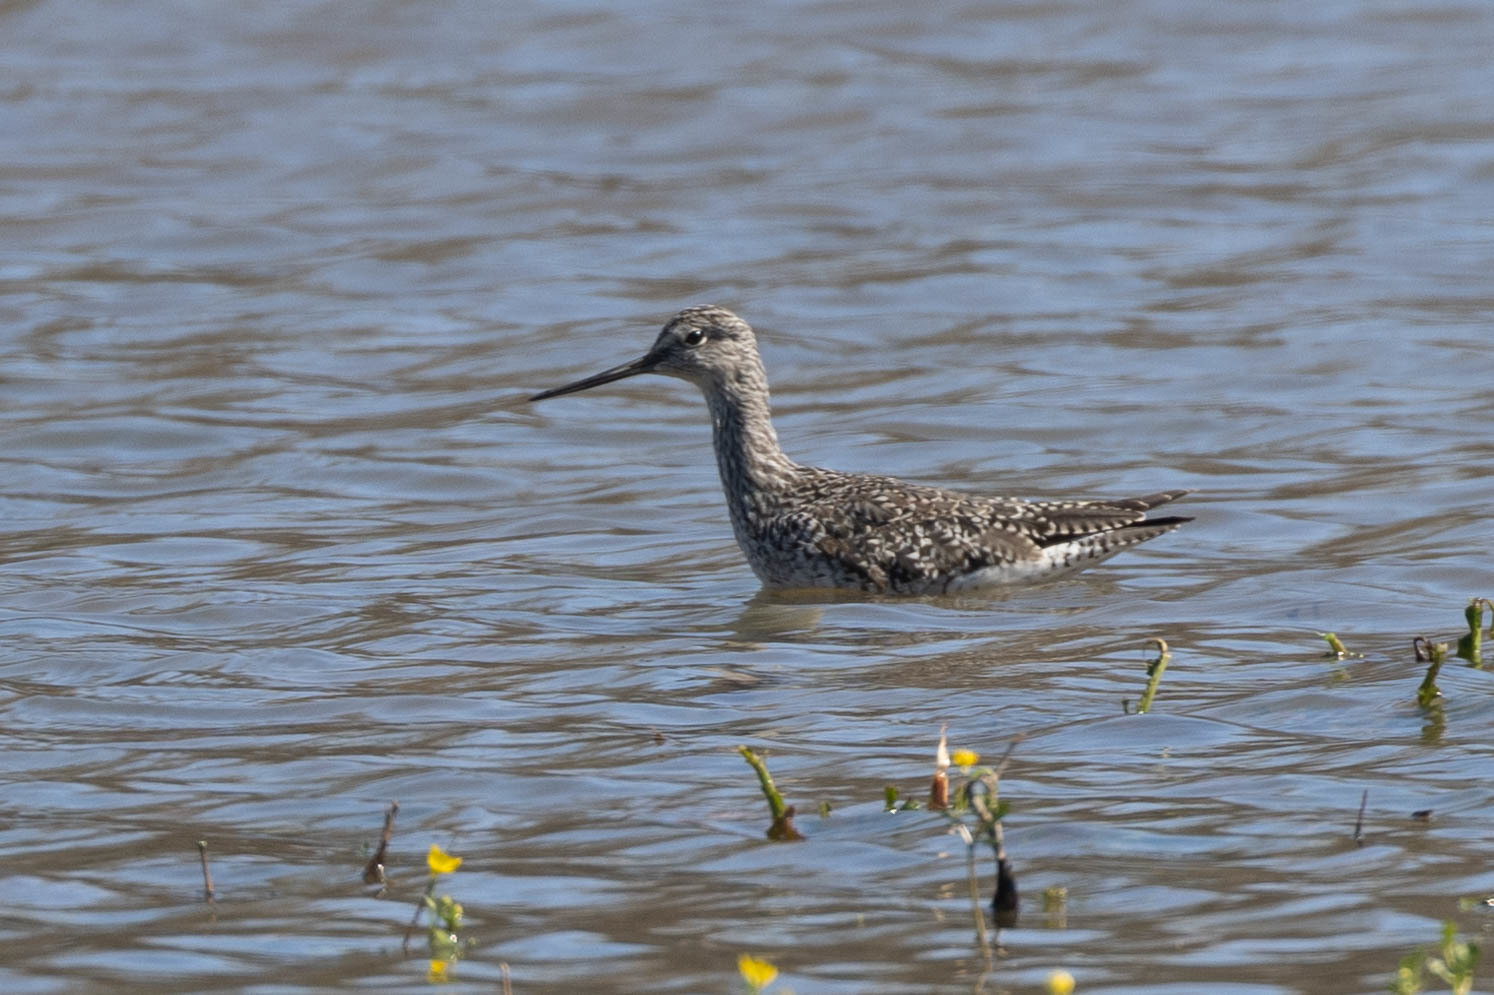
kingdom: Animalia
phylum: Chordata
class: Aves
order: Charadriiformes
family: Scolopacidae
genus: Tringa
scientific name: Tringa melanoleuca
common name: Greater yellowlegs
